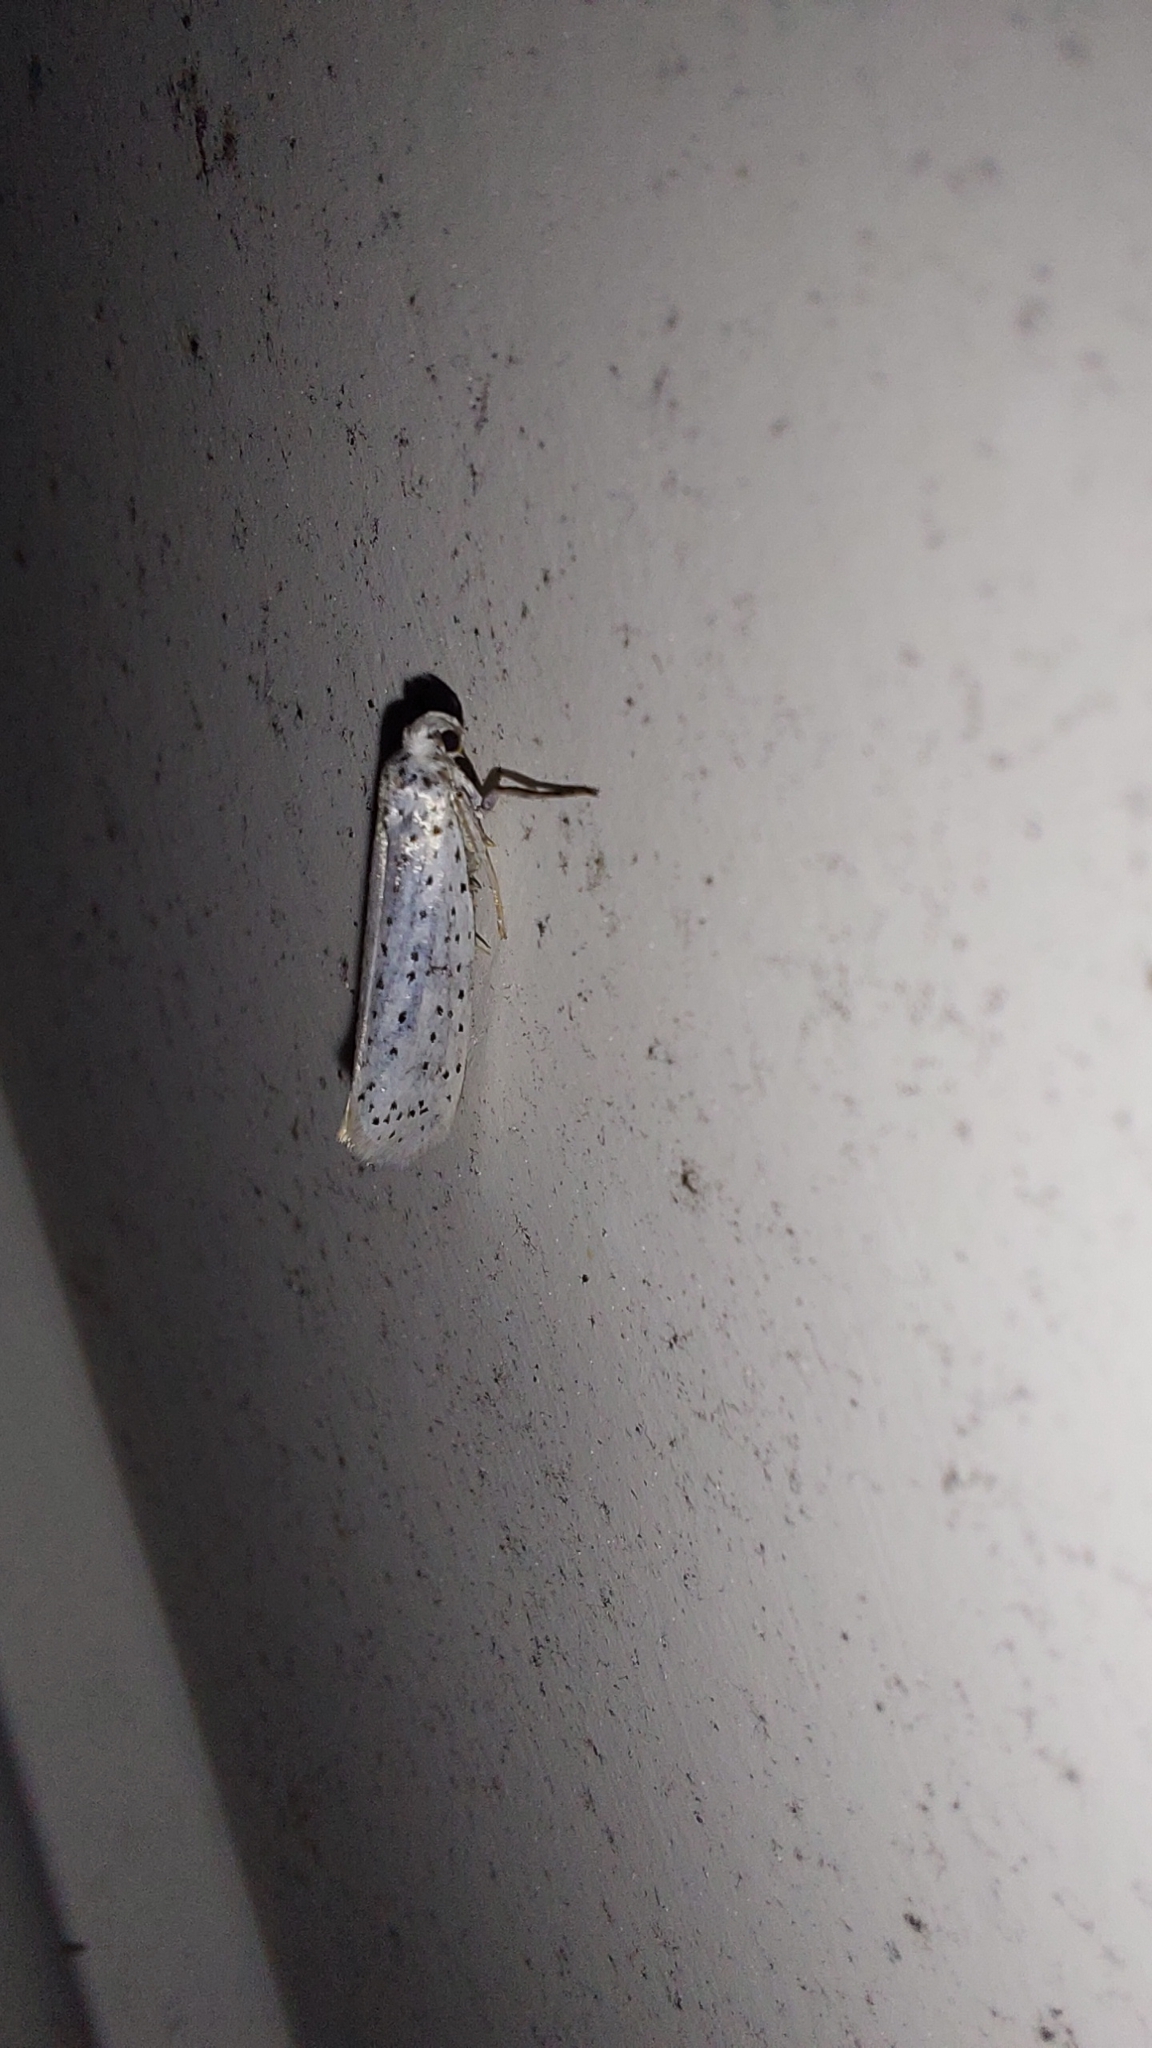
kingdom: Animalia
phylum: Arthropoda
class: Insecta
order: Lepidoptera
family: Yponomeutidae
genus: Yponomeuta
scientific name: Yponomeuta evonymella
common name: Bird-cherry ermine
